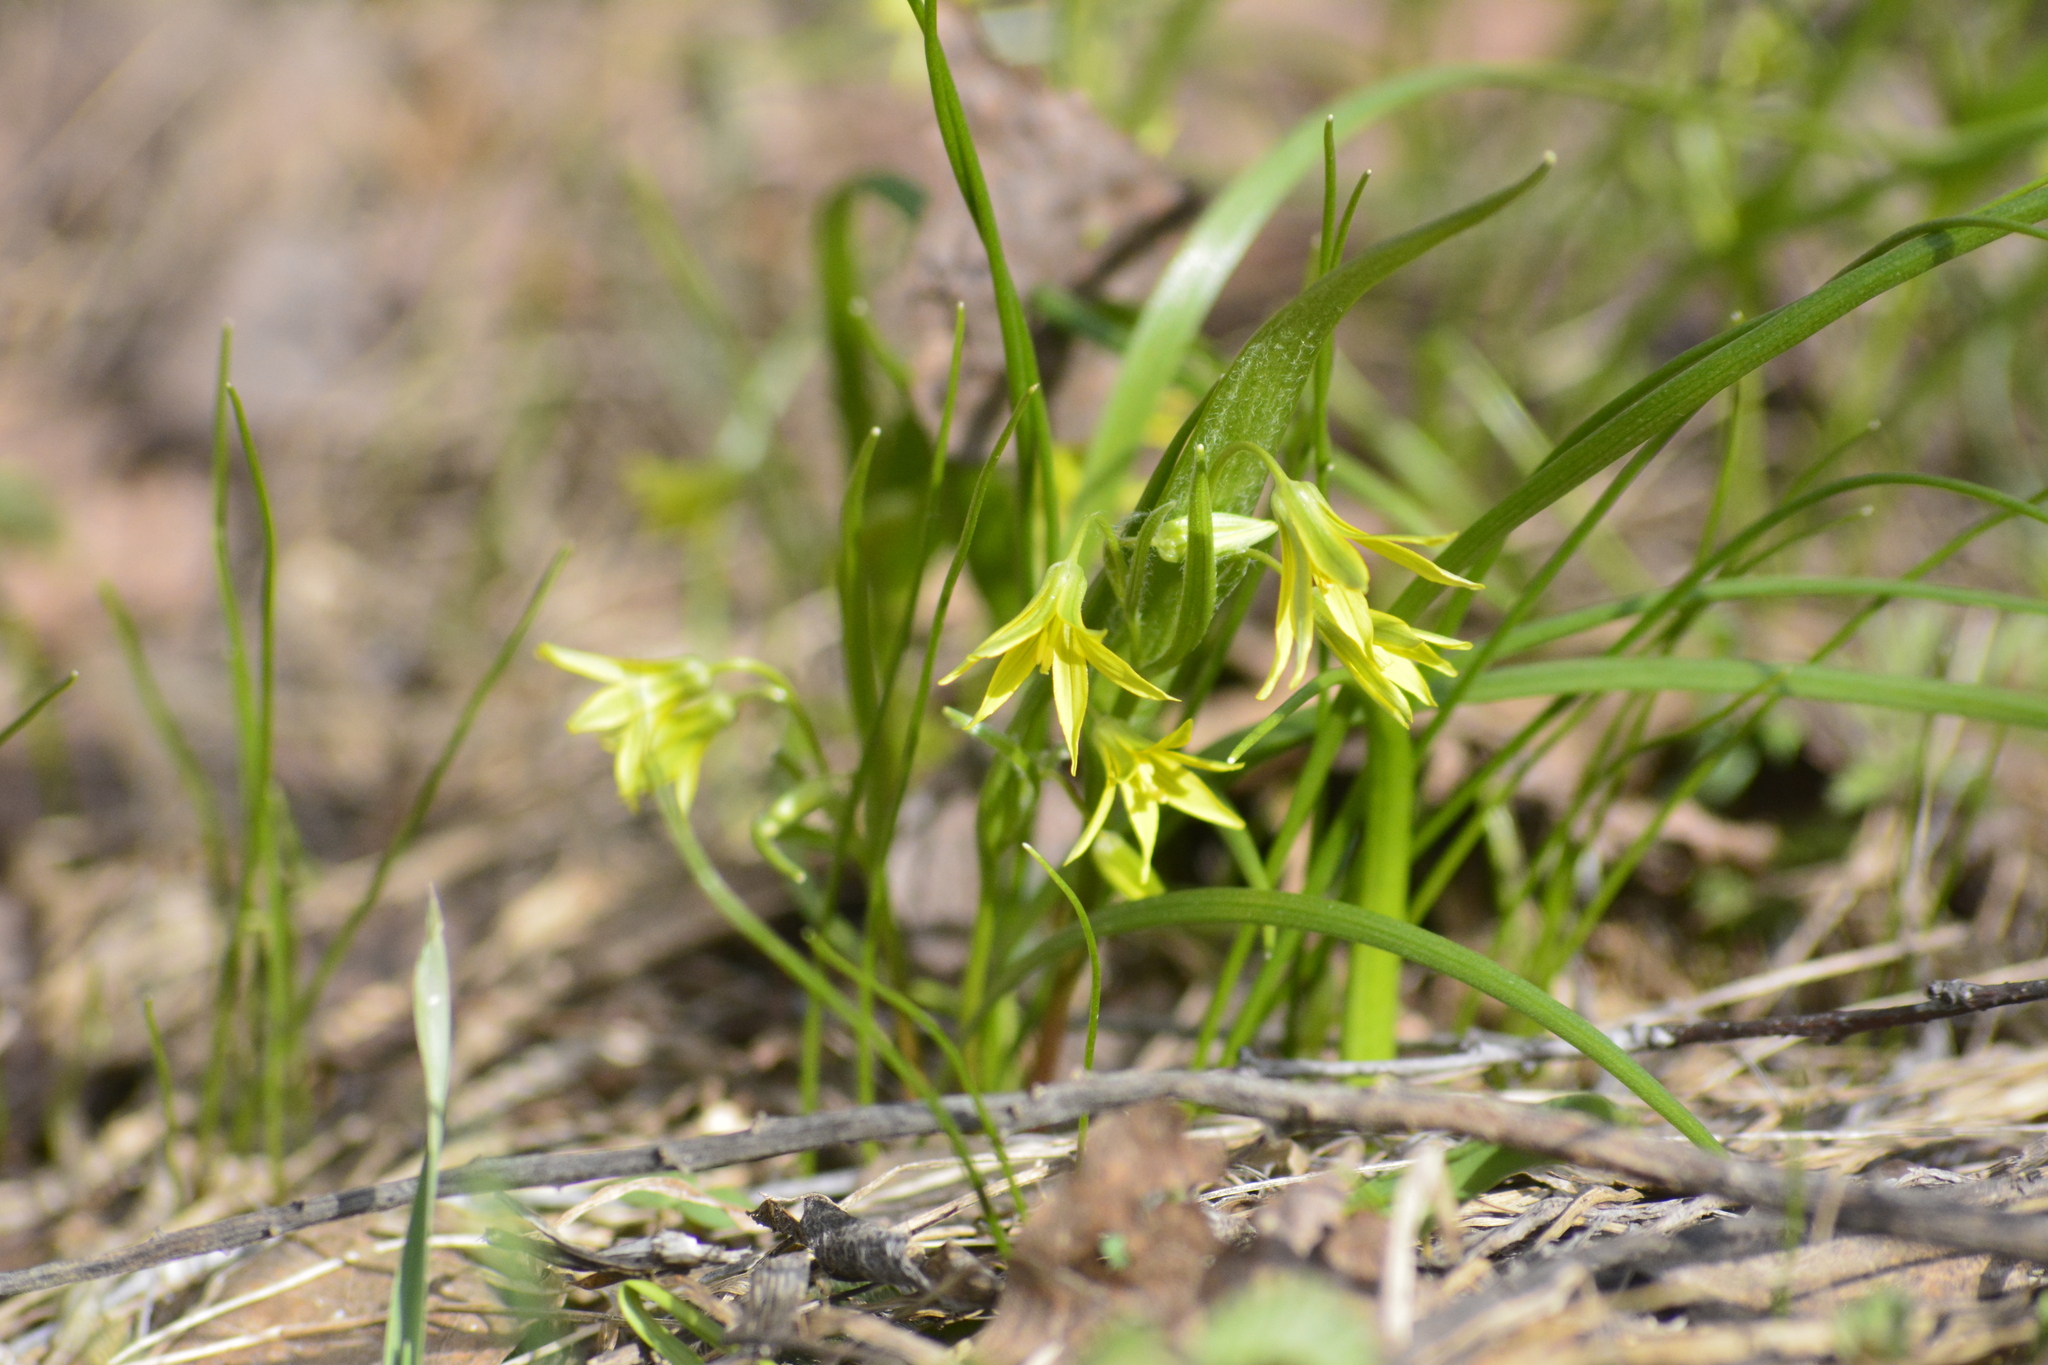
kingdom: Plantae
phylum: Tracheophyta
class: Liliopsida
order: Liliales
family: Liliaceae
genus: Gagea
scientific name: Gagea minima
